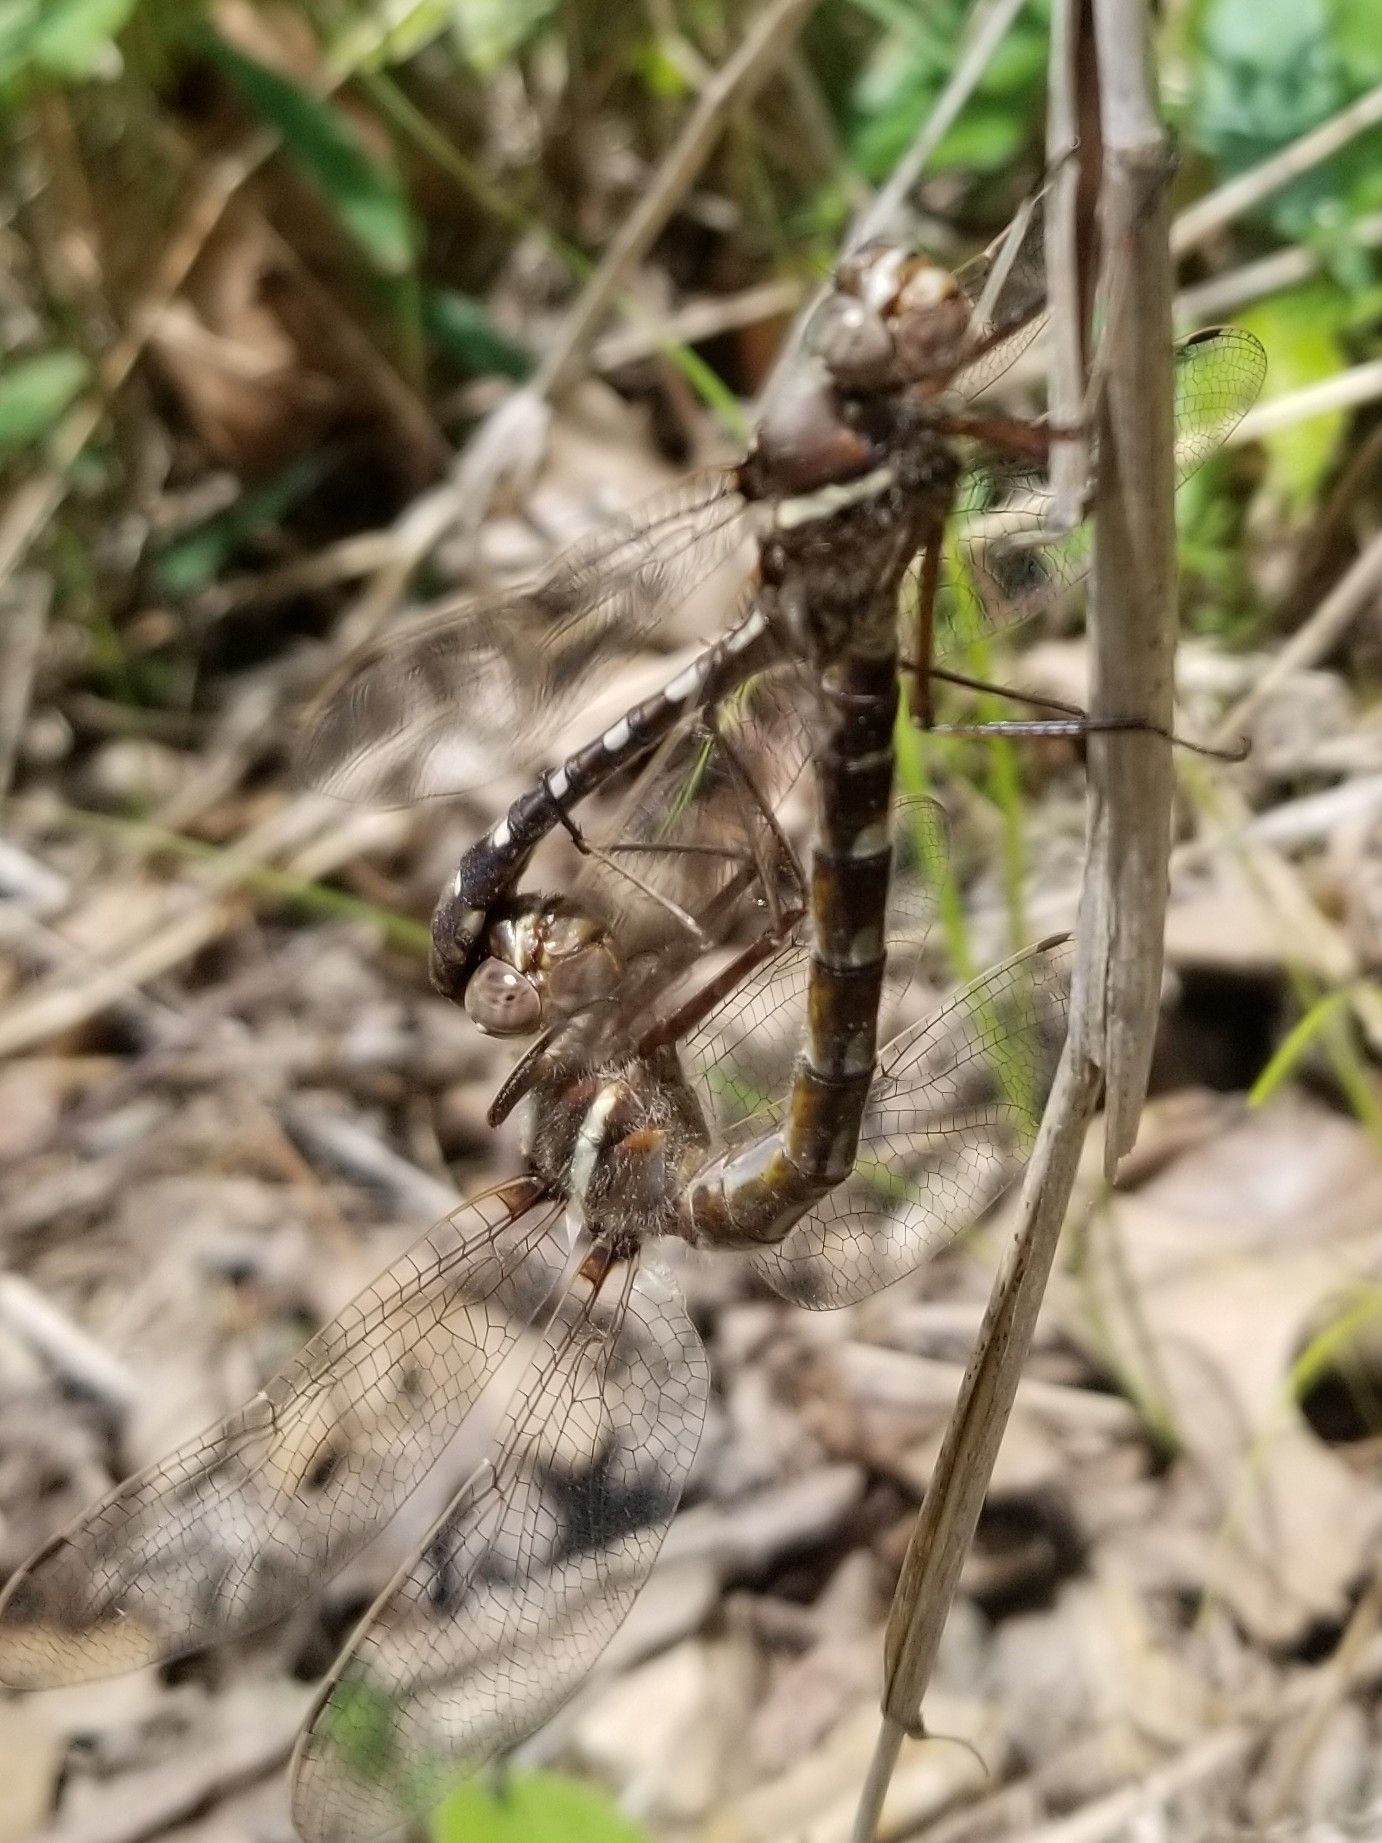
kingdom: Animalia
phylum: Arthropoda
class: Insecta
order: Odonata
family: Macromiidae
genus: Didymops
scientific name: Didymops transversa
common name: Stream cruiser
